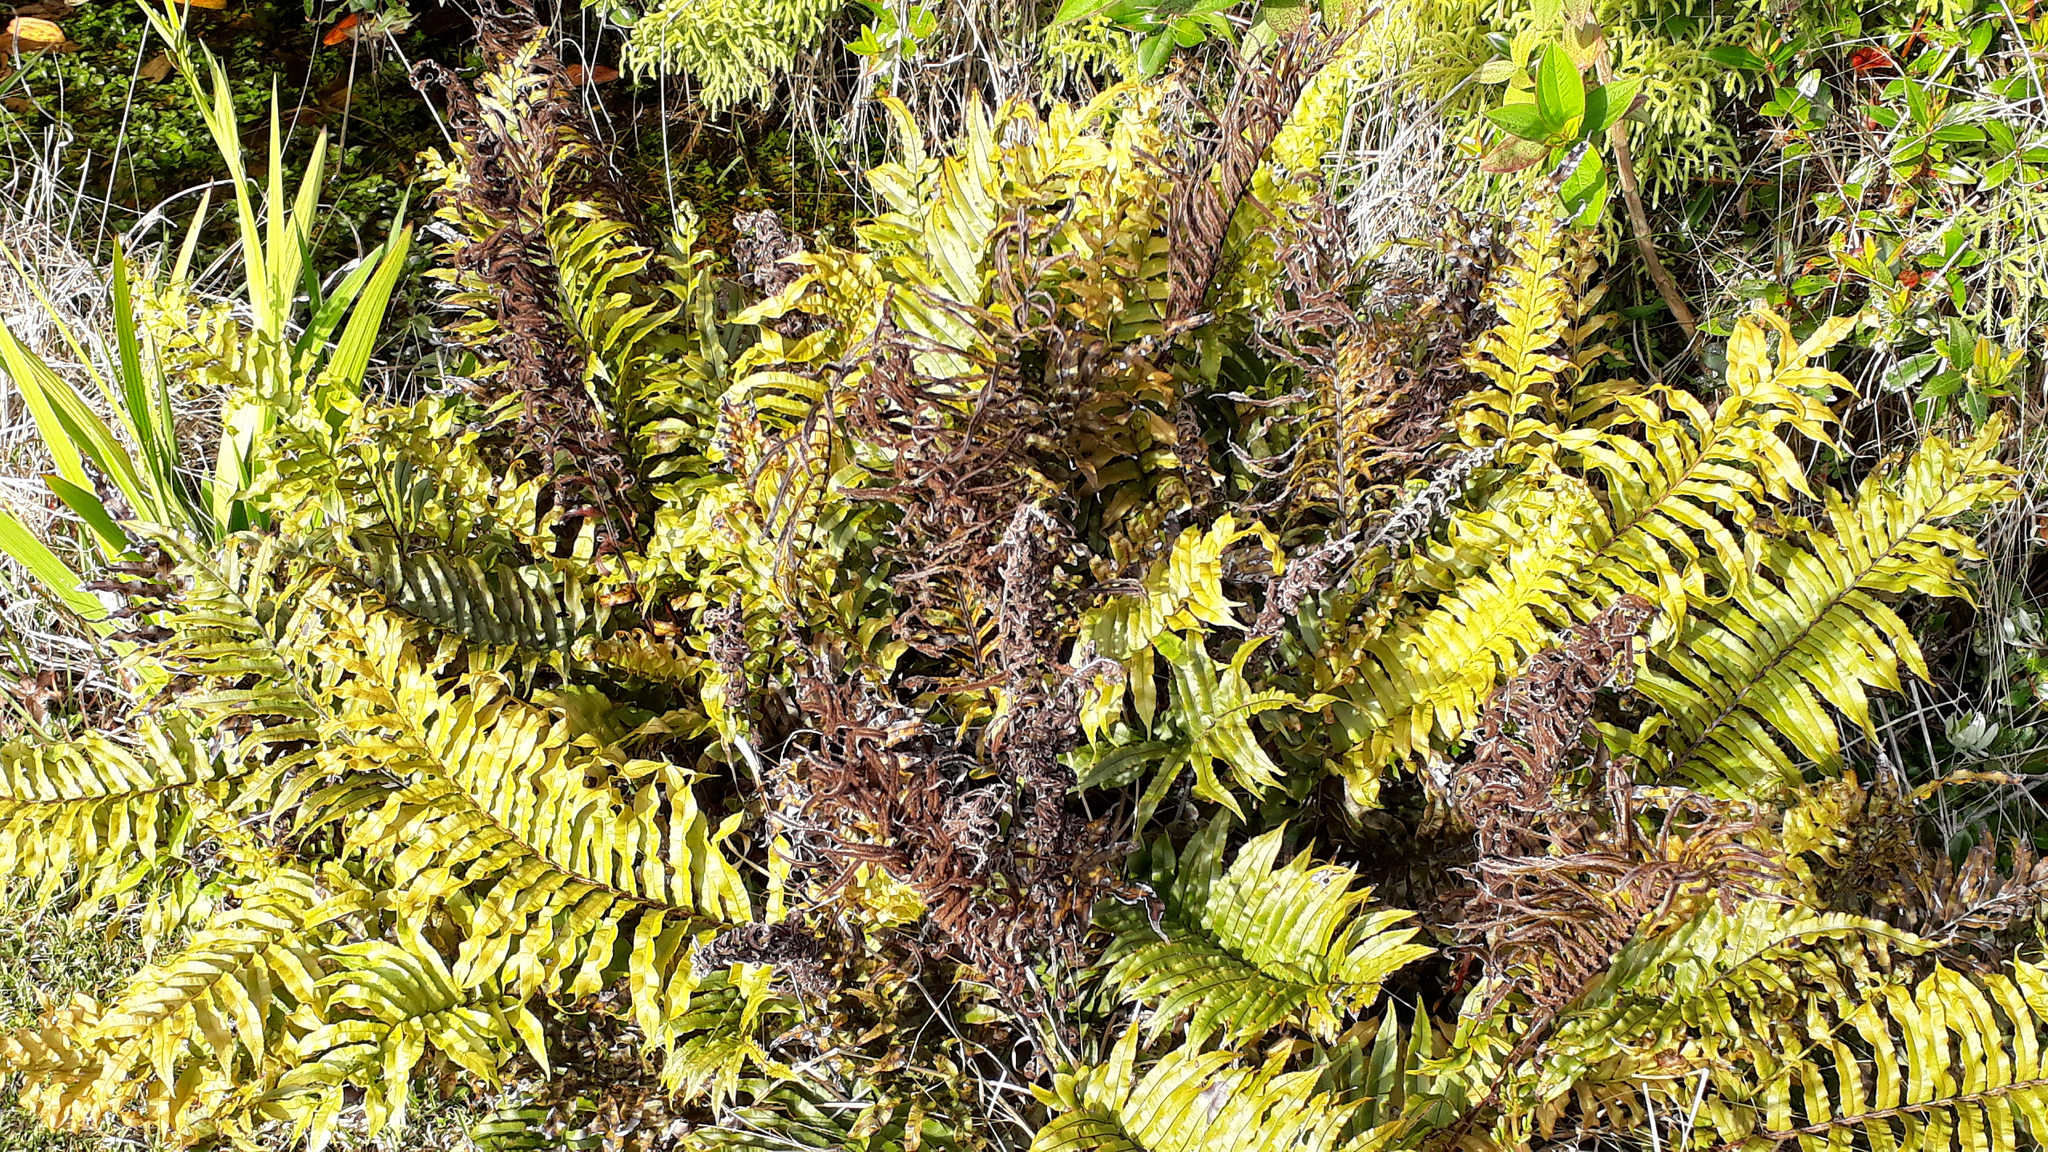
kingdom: Plantae
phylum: Tracheophyta
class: Polypodiopsida
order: Polypodiales
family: Blechnaceae
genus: Parablechnum
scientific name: Parablechnum novae-zelandiae
